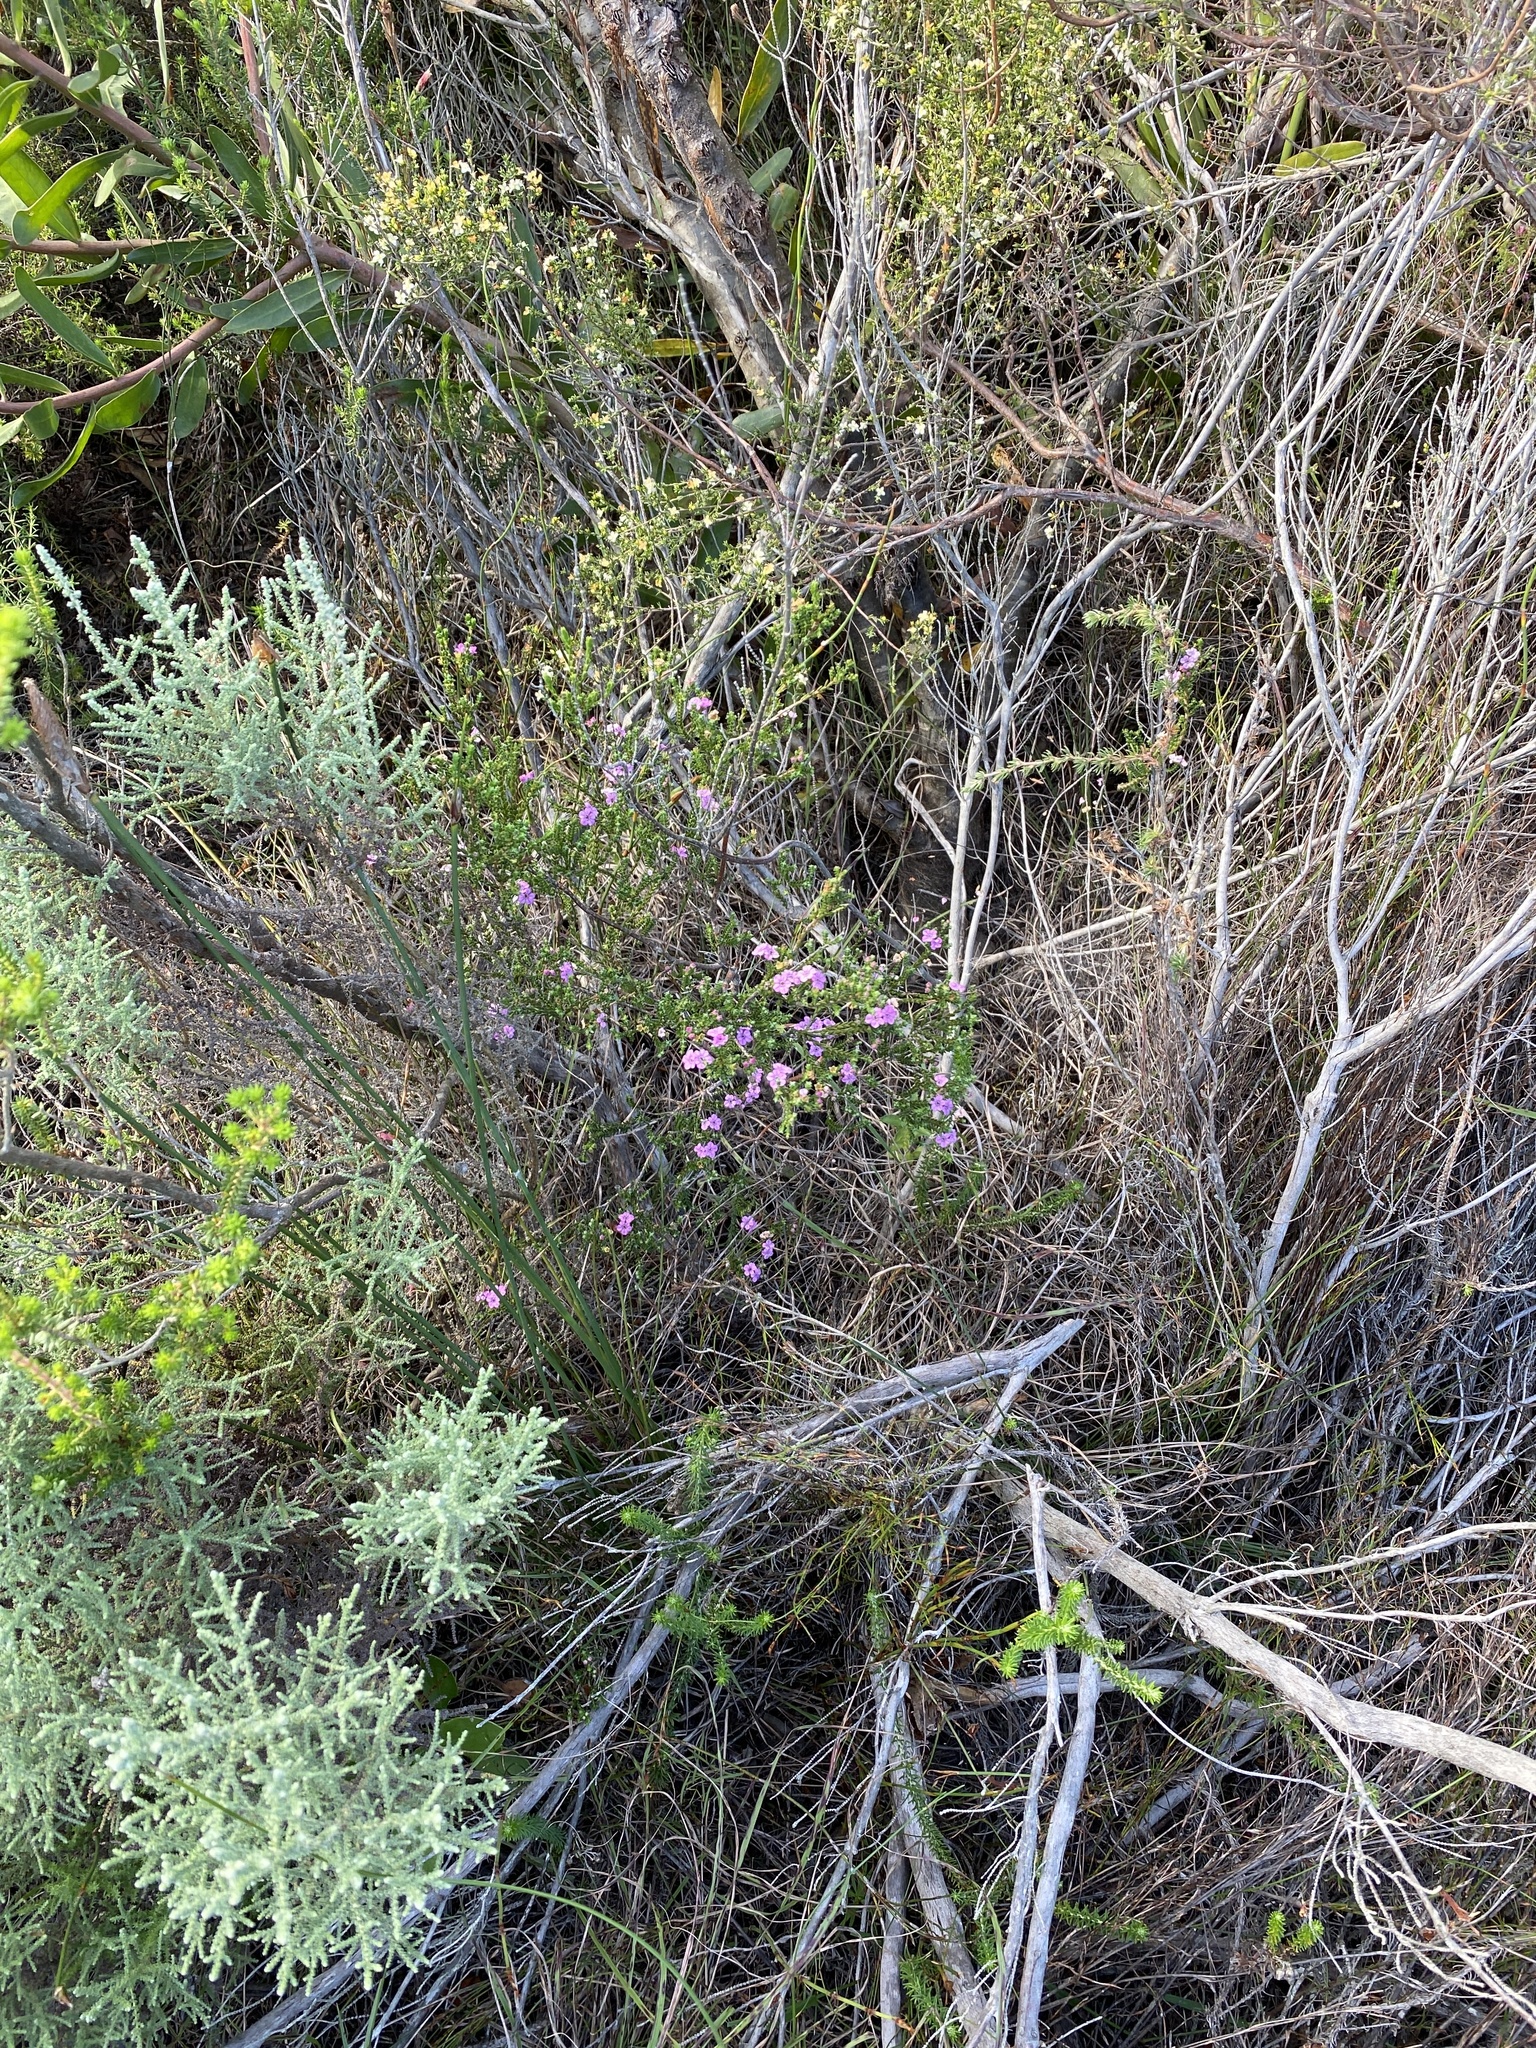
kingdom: Plantae
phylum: Tracheophyta
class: Magnoliopsida
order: Sapindales
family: Rutaceae
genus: Euchaetis
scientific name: Euchaetis albertiniana
